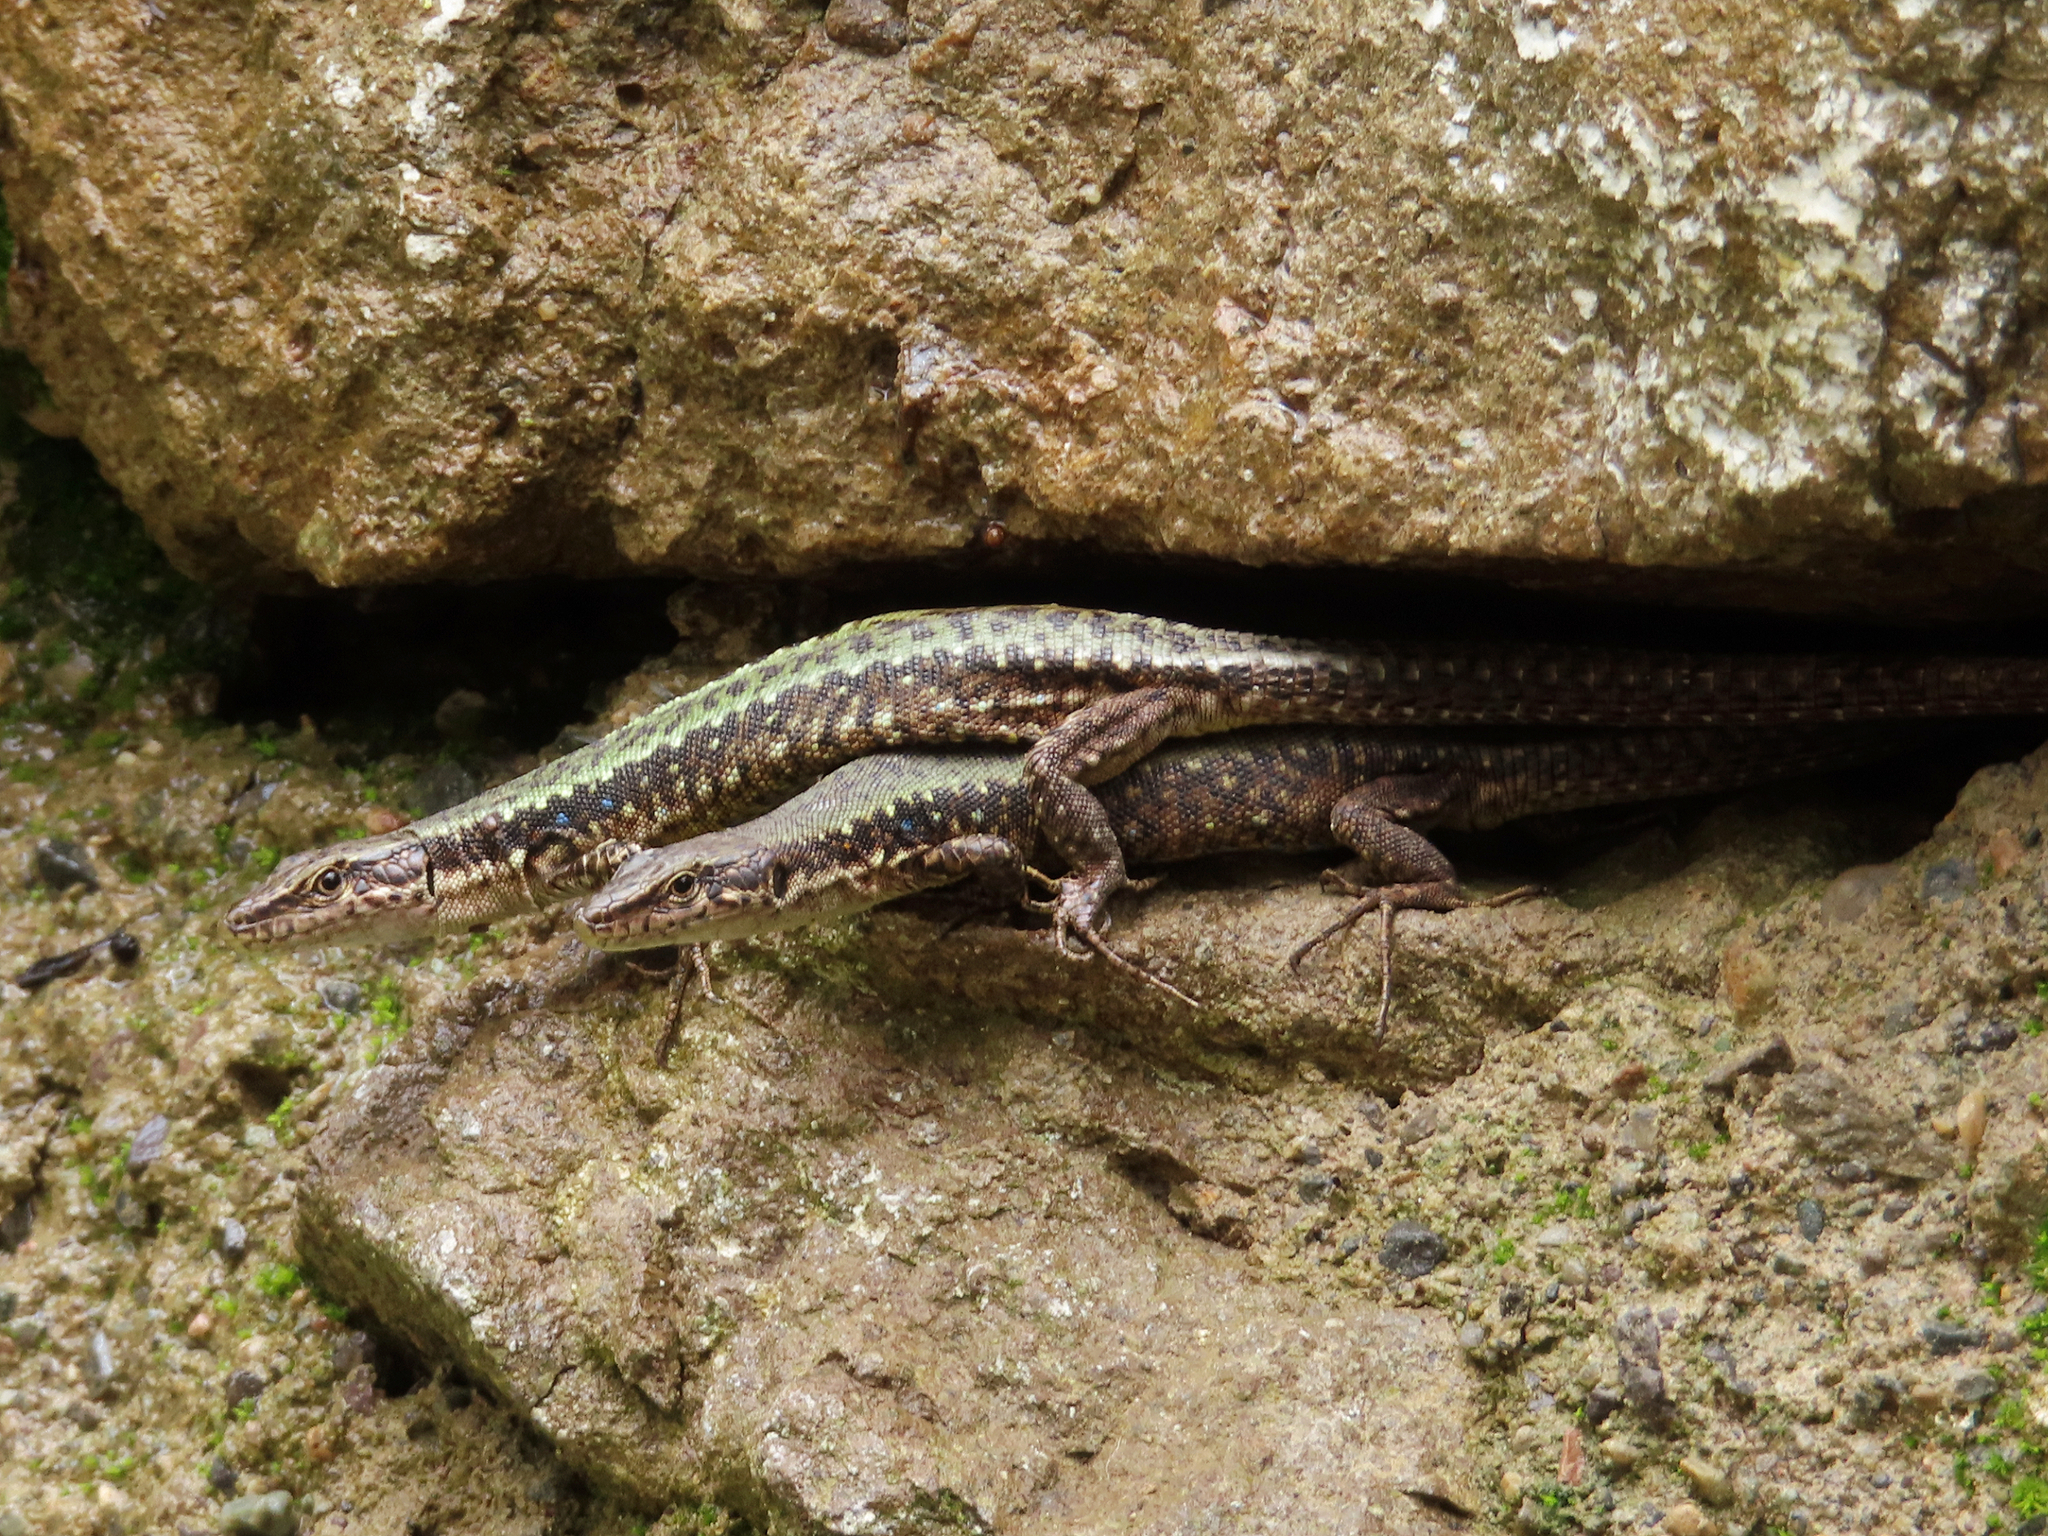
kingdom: Animalia
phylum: Chordata
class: Squamata
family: Lacertidae
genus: Darevskia
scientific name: Darevskia armeniaca
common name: Armenian lizard
